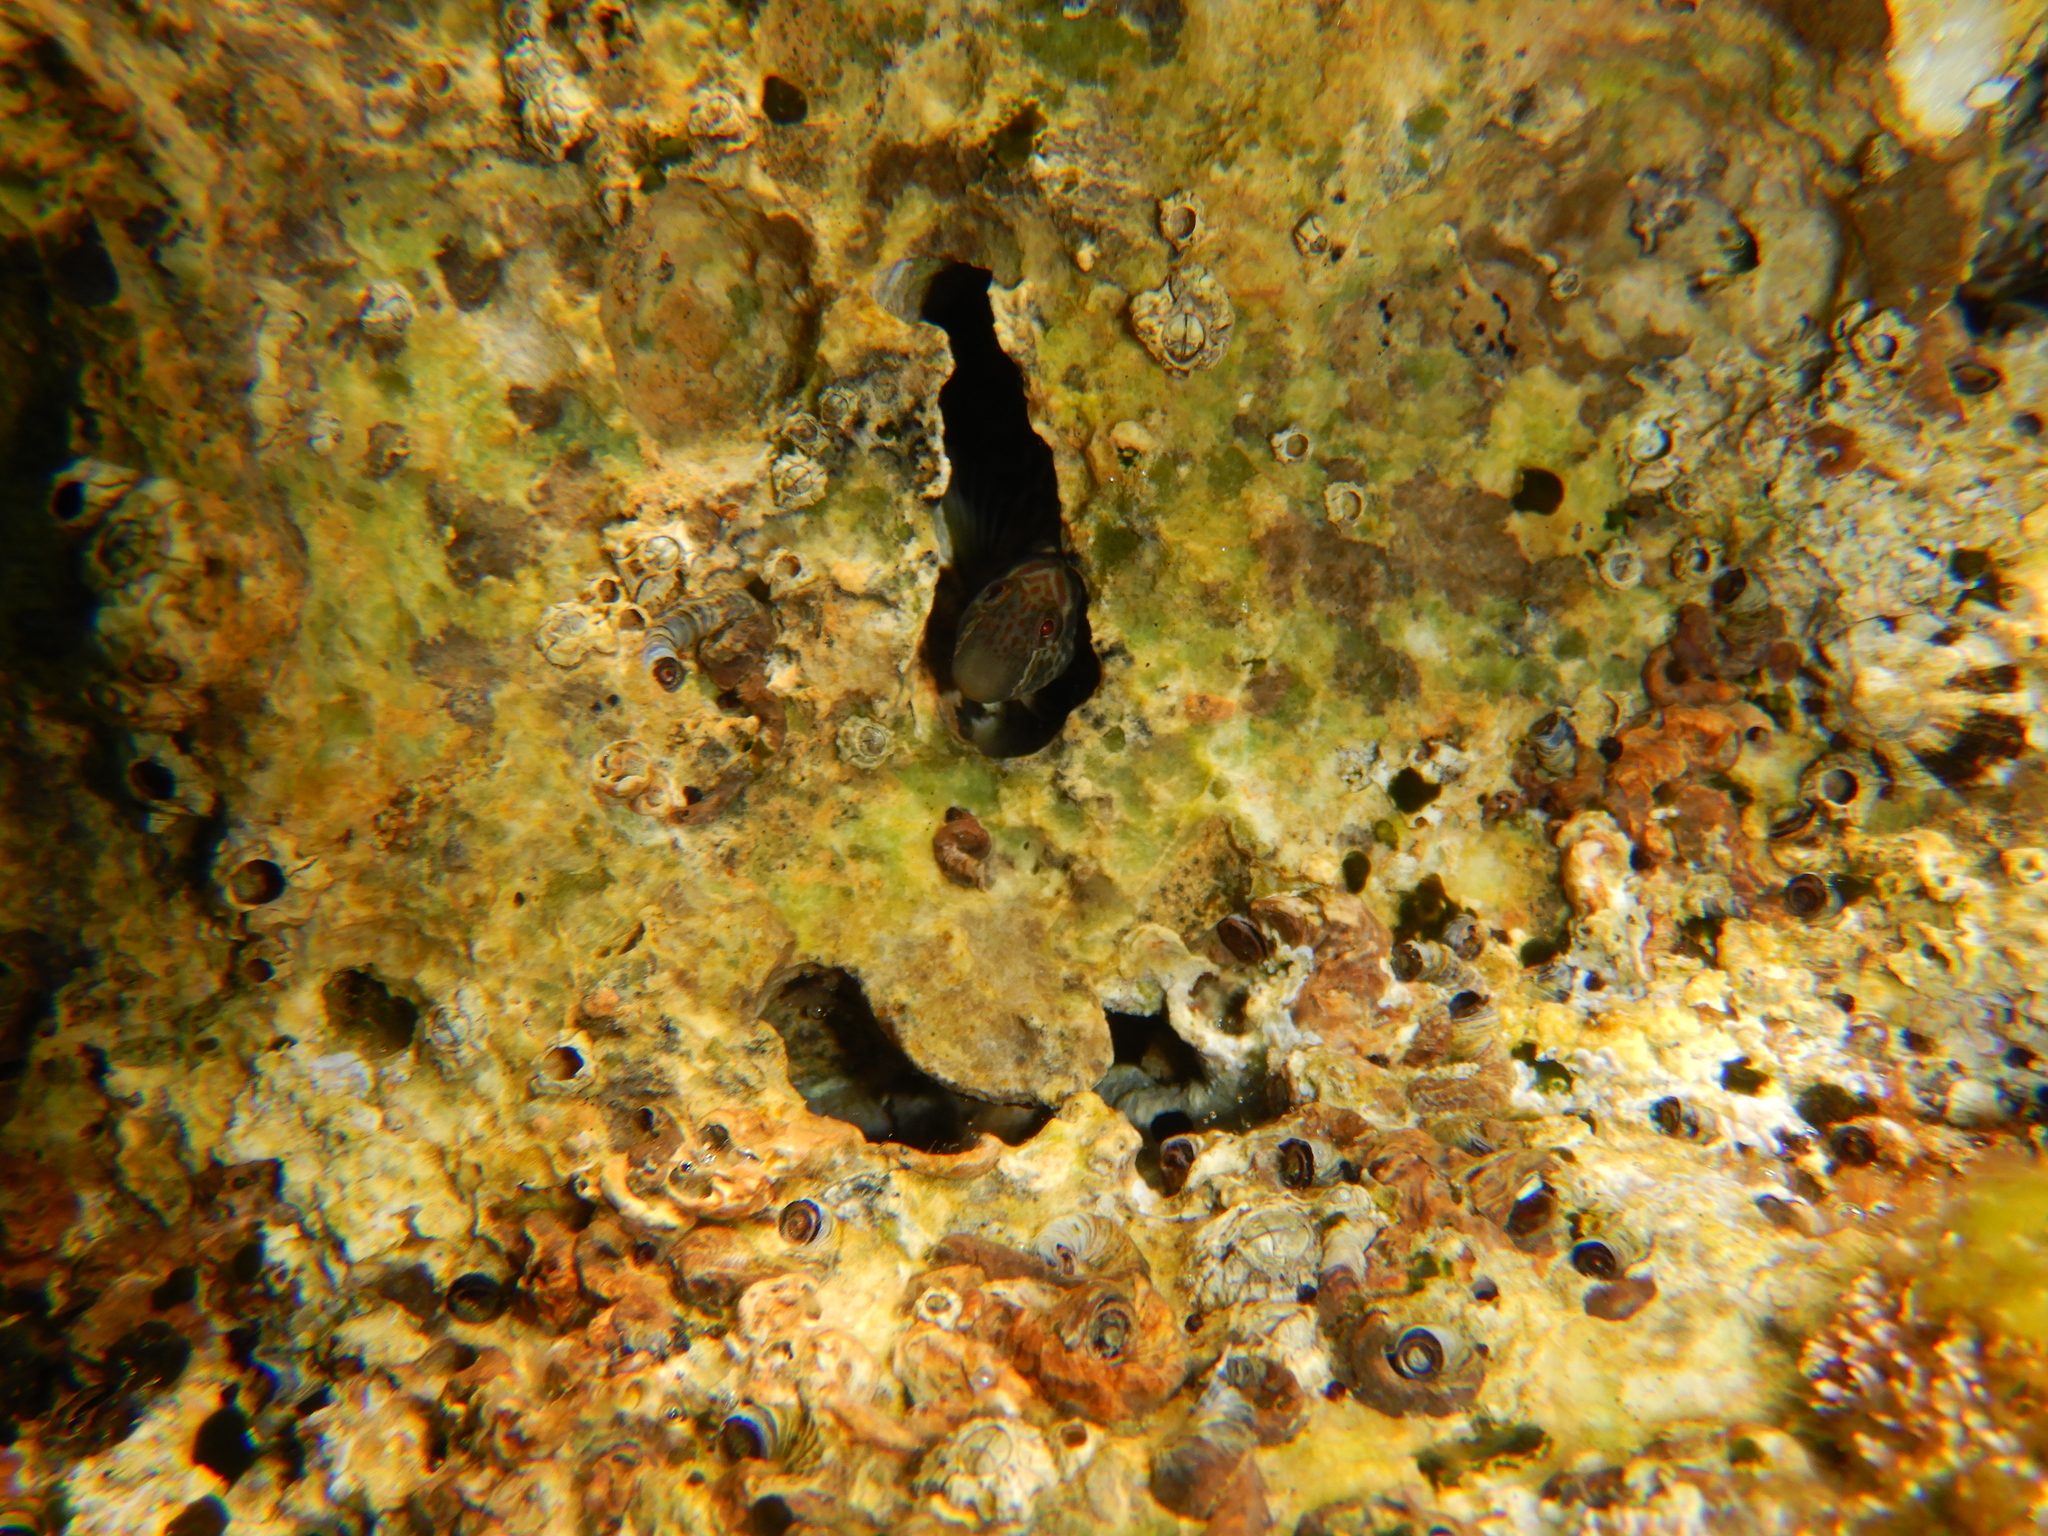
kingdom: Animalia
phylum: Chordata
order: Perciformes
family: Blenniidae
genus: Microlipophrys
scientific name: Microlipophrys canevae
